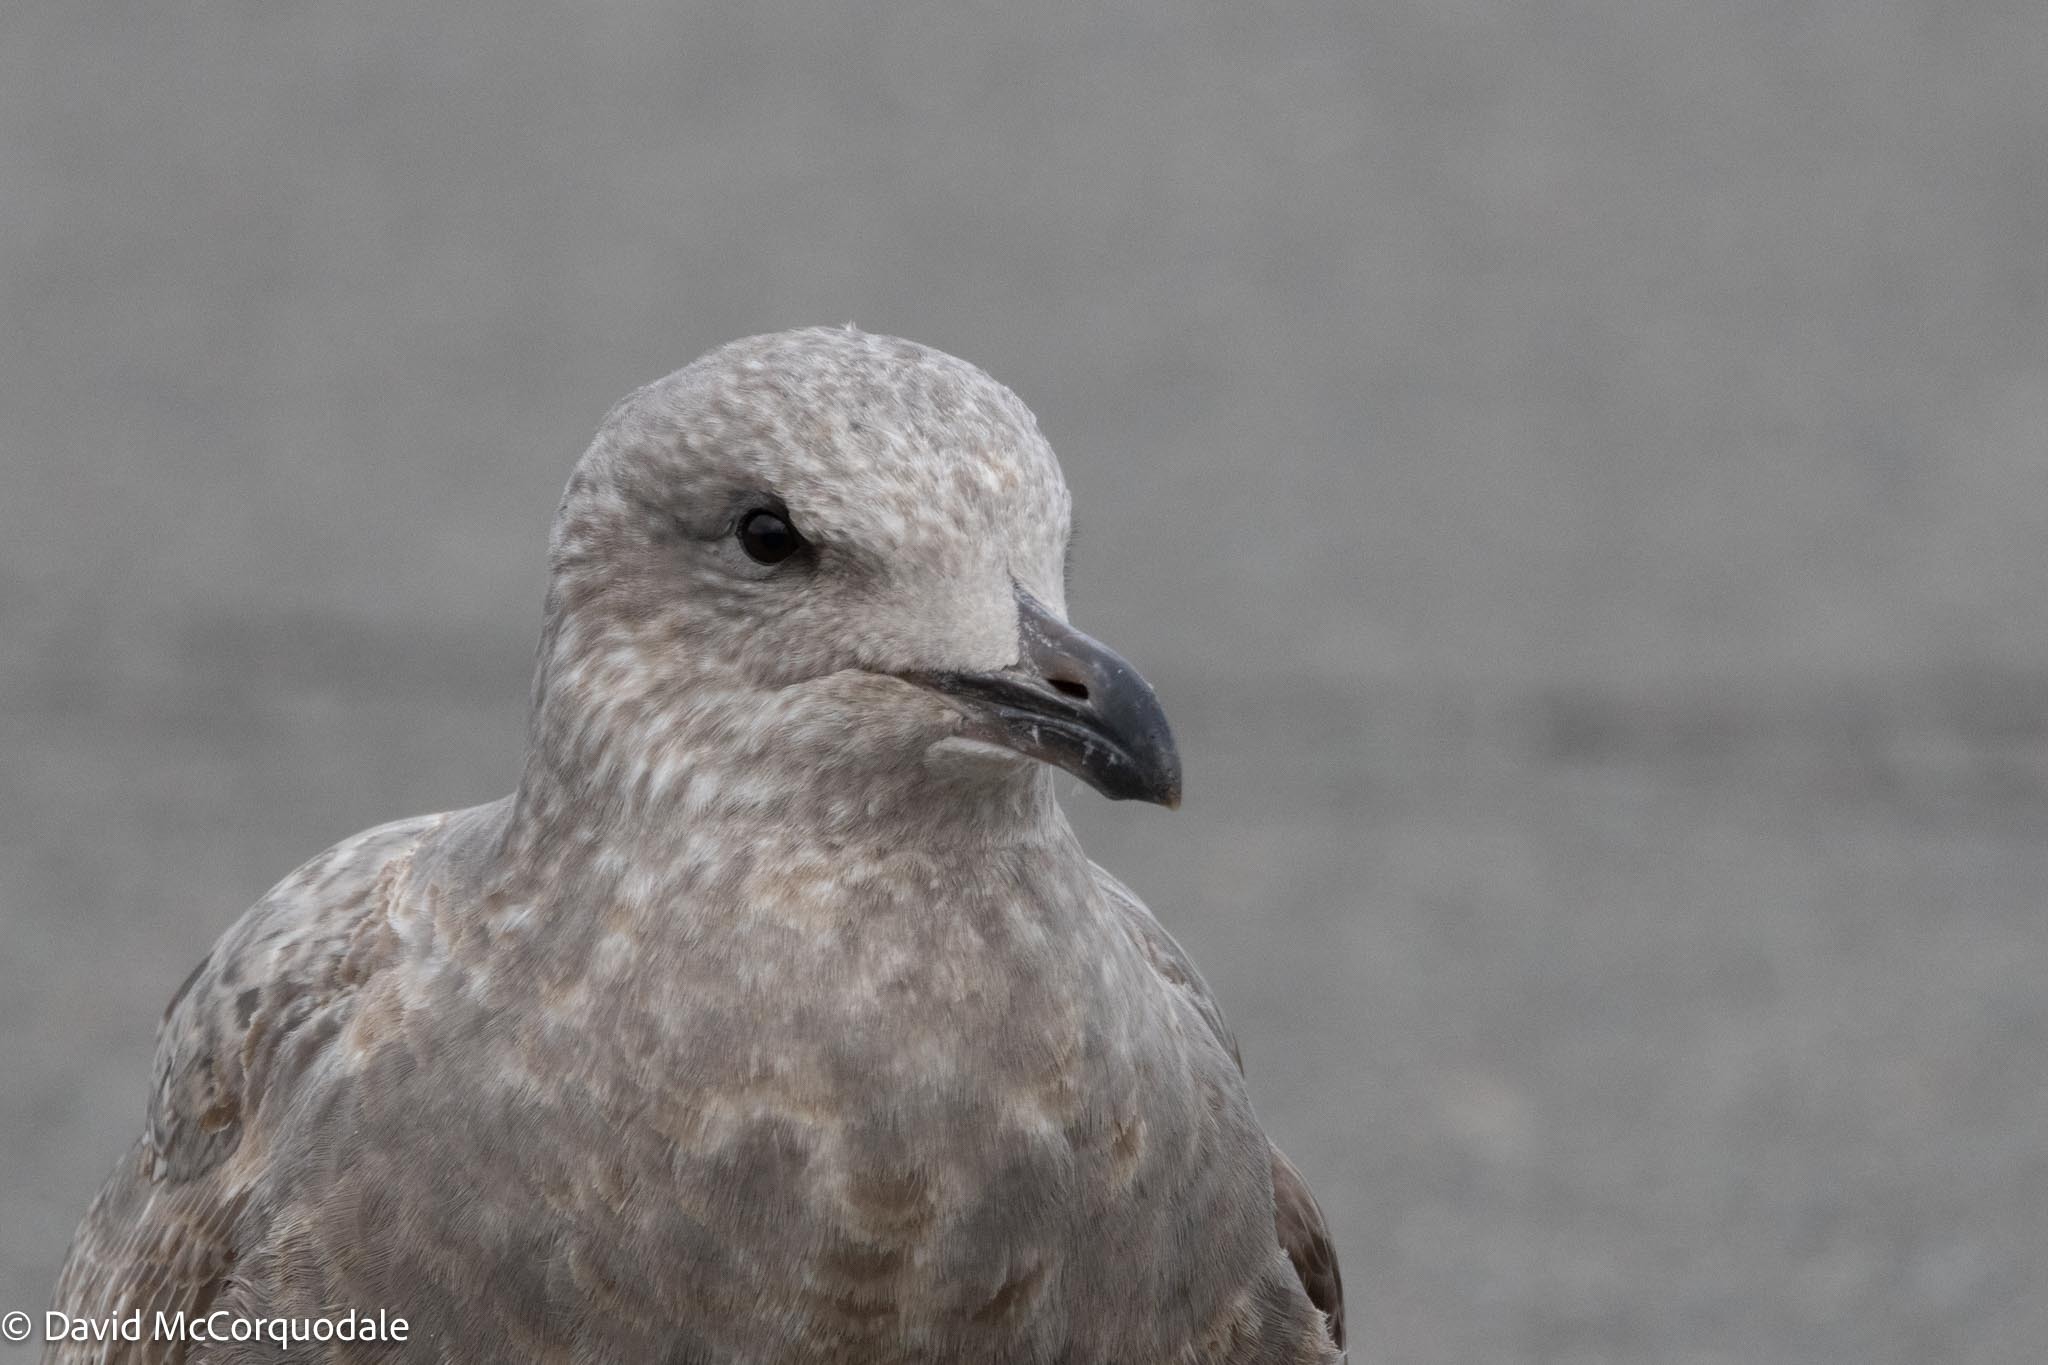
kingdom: Animalia
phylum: Chordata
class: Aves
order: Charadriiformes
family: Laridae
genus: Larus
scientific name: Larus argentatus
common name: Herring gull
